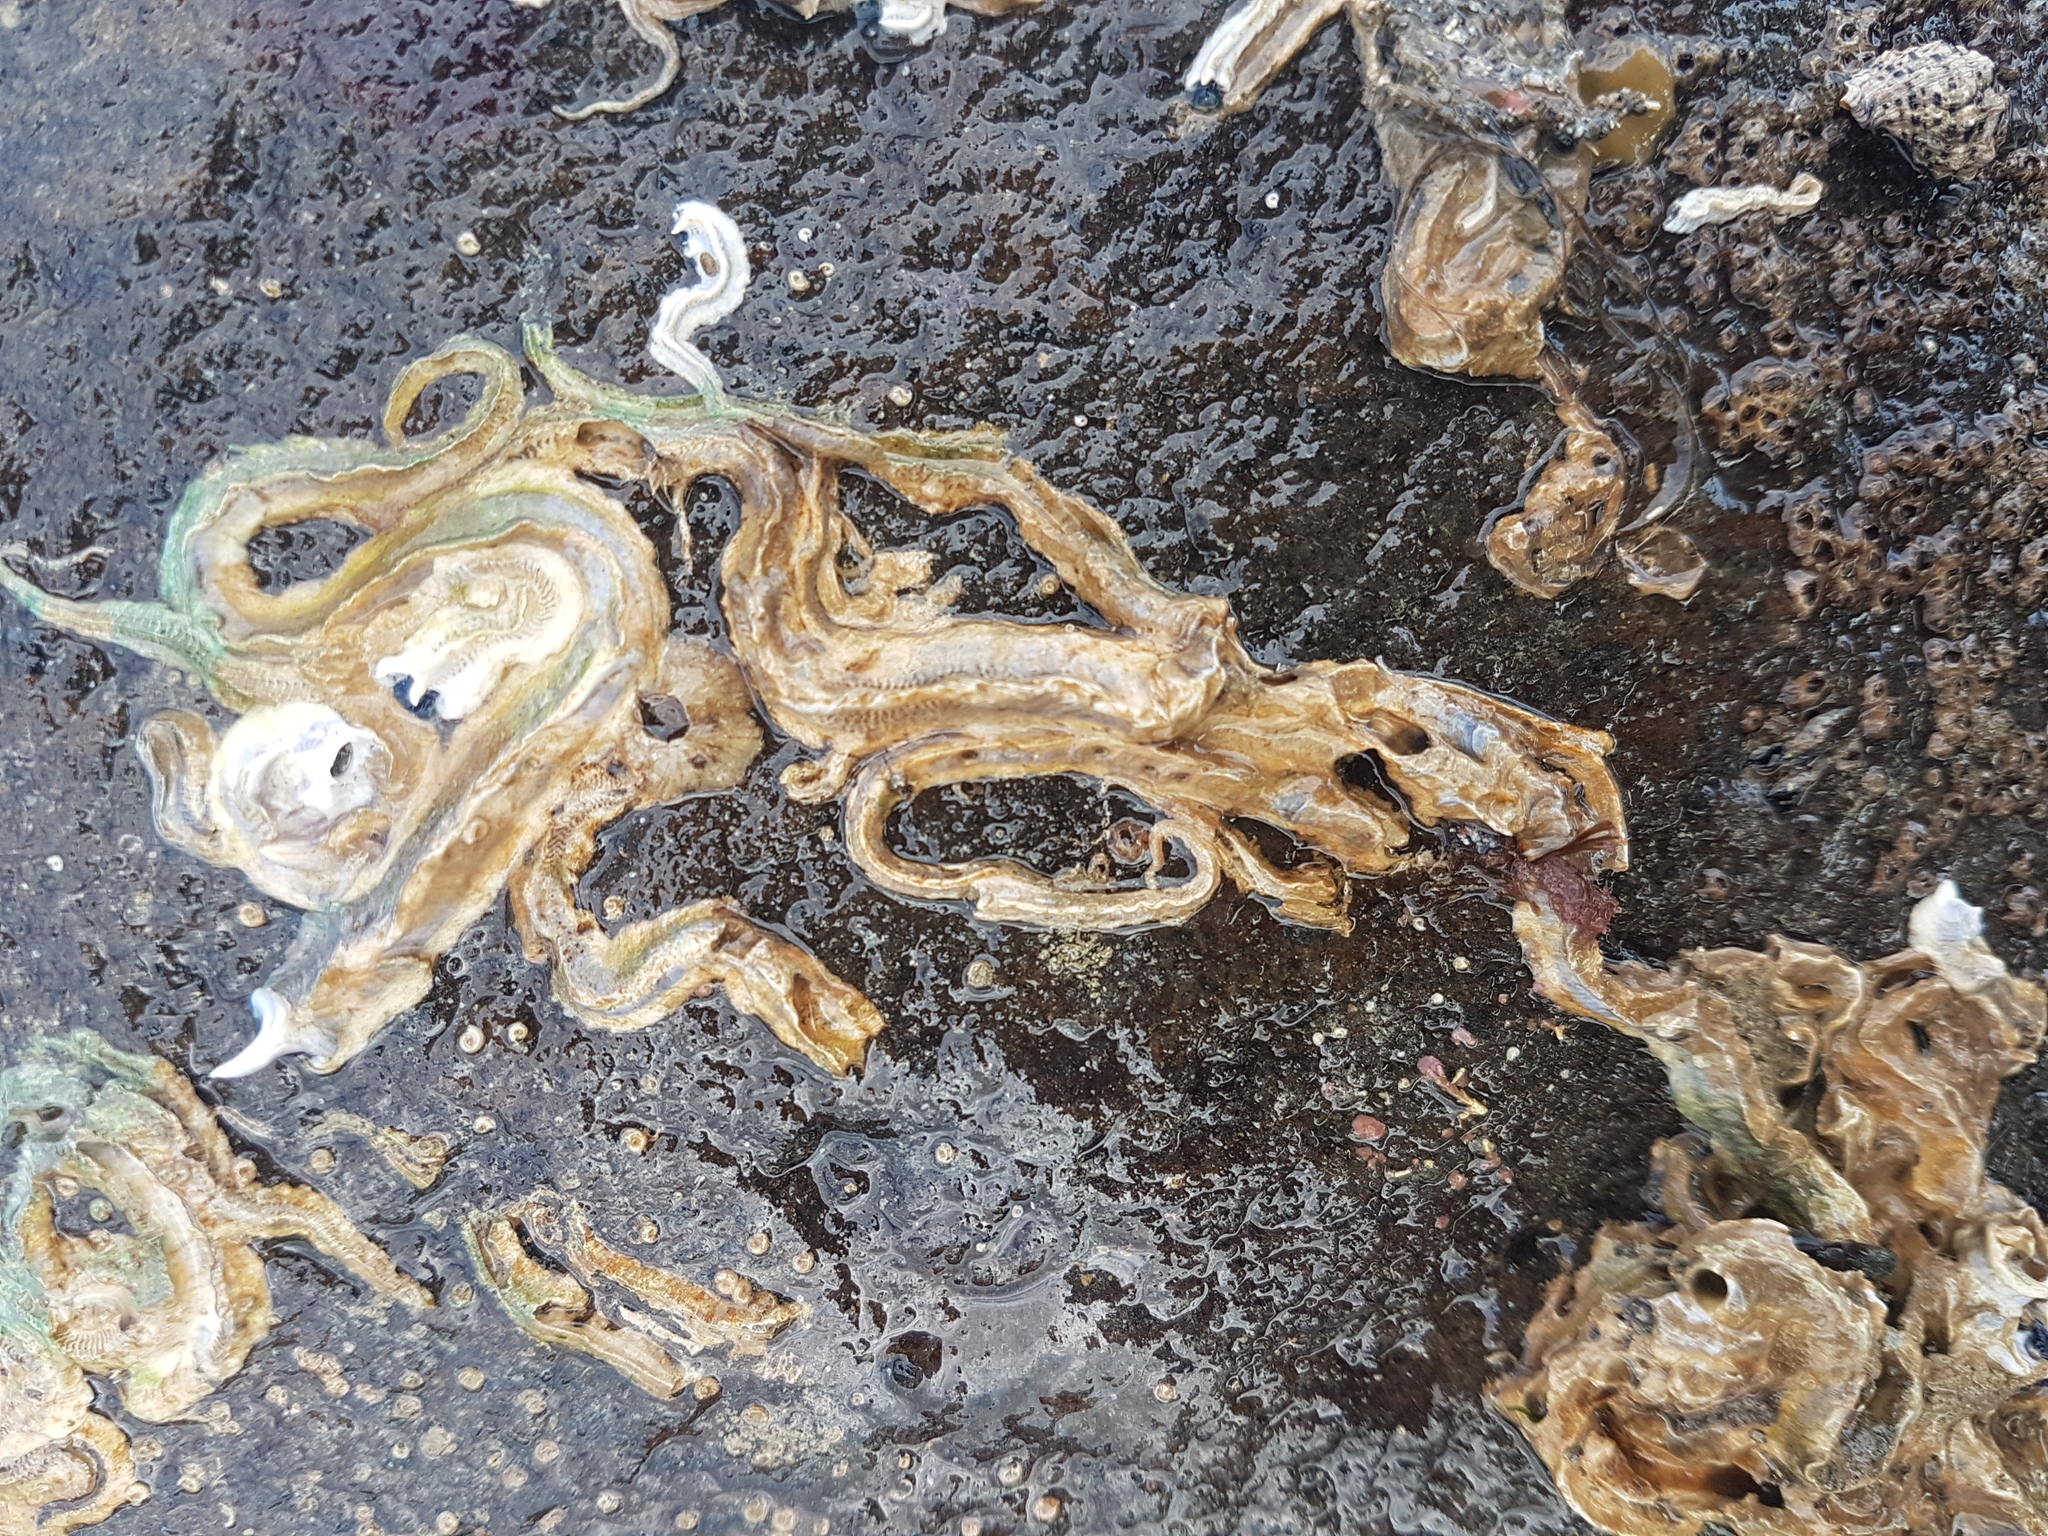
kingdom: Animalia
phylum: Annelida
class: Polychaeta
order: Sabellida
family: Serpulidae
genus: Spirobranchus
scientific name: Spirobranchus cariniferus
